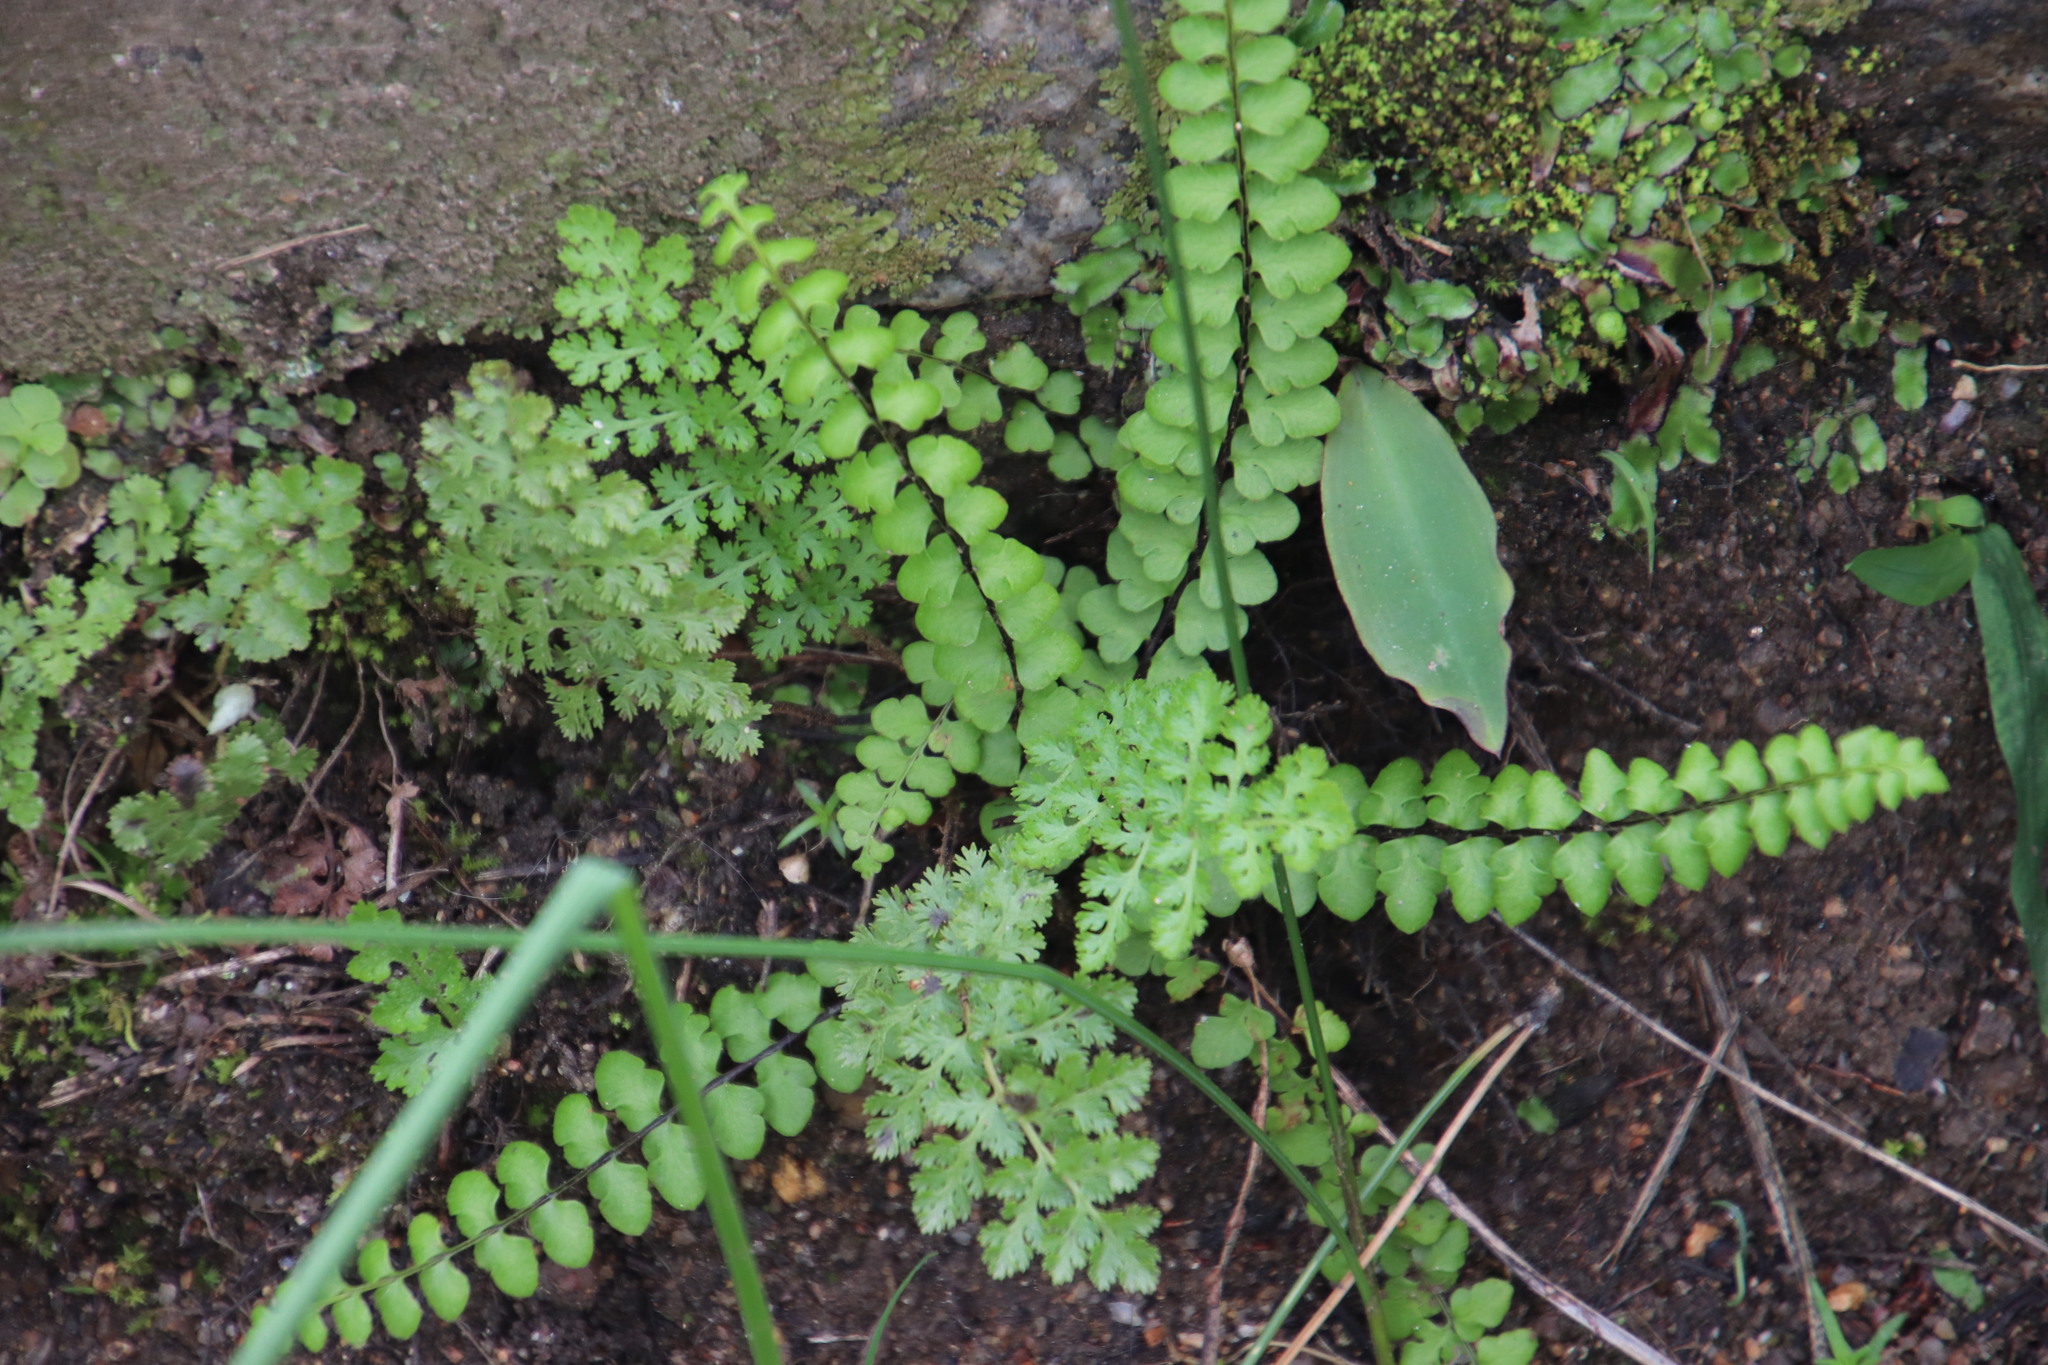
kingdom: Plantae
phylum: Tracheophyta
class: Polypodiopsida
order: Schizaeales
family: Anemiaceae
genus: Anemia
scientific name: Anemia caffrorum
